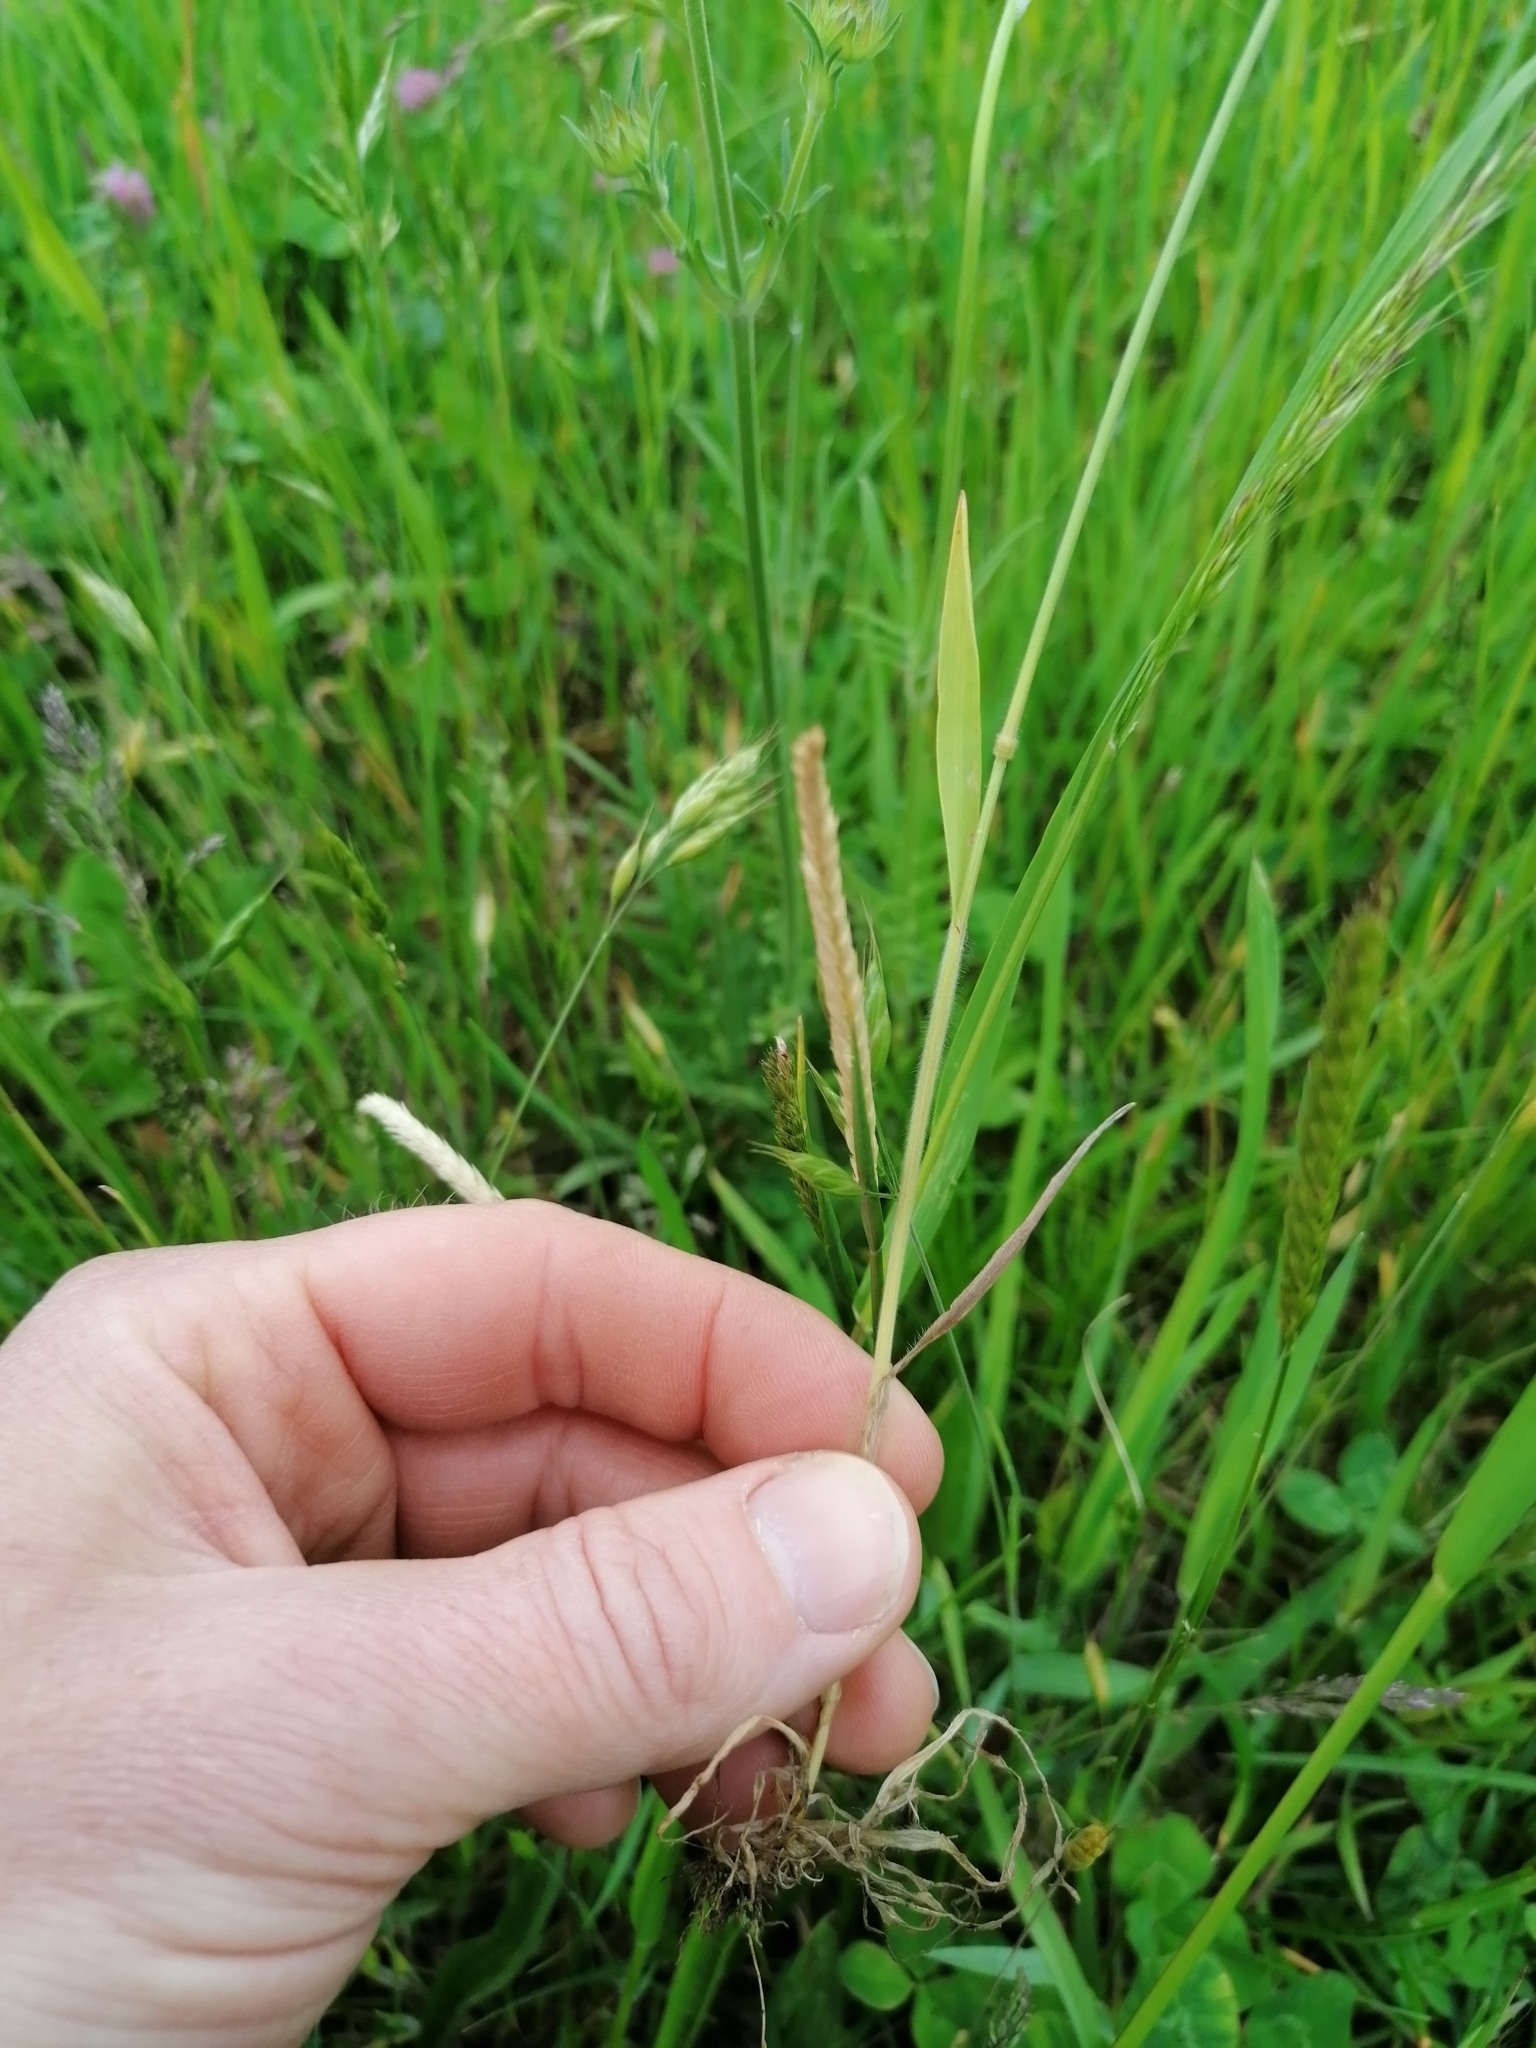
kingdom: Plantae
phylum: Tracheophyta
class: Liliopsida
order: Poales
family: Poaceae
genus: Bromus
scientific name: Bromus hordeaceus
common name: Soft brome
